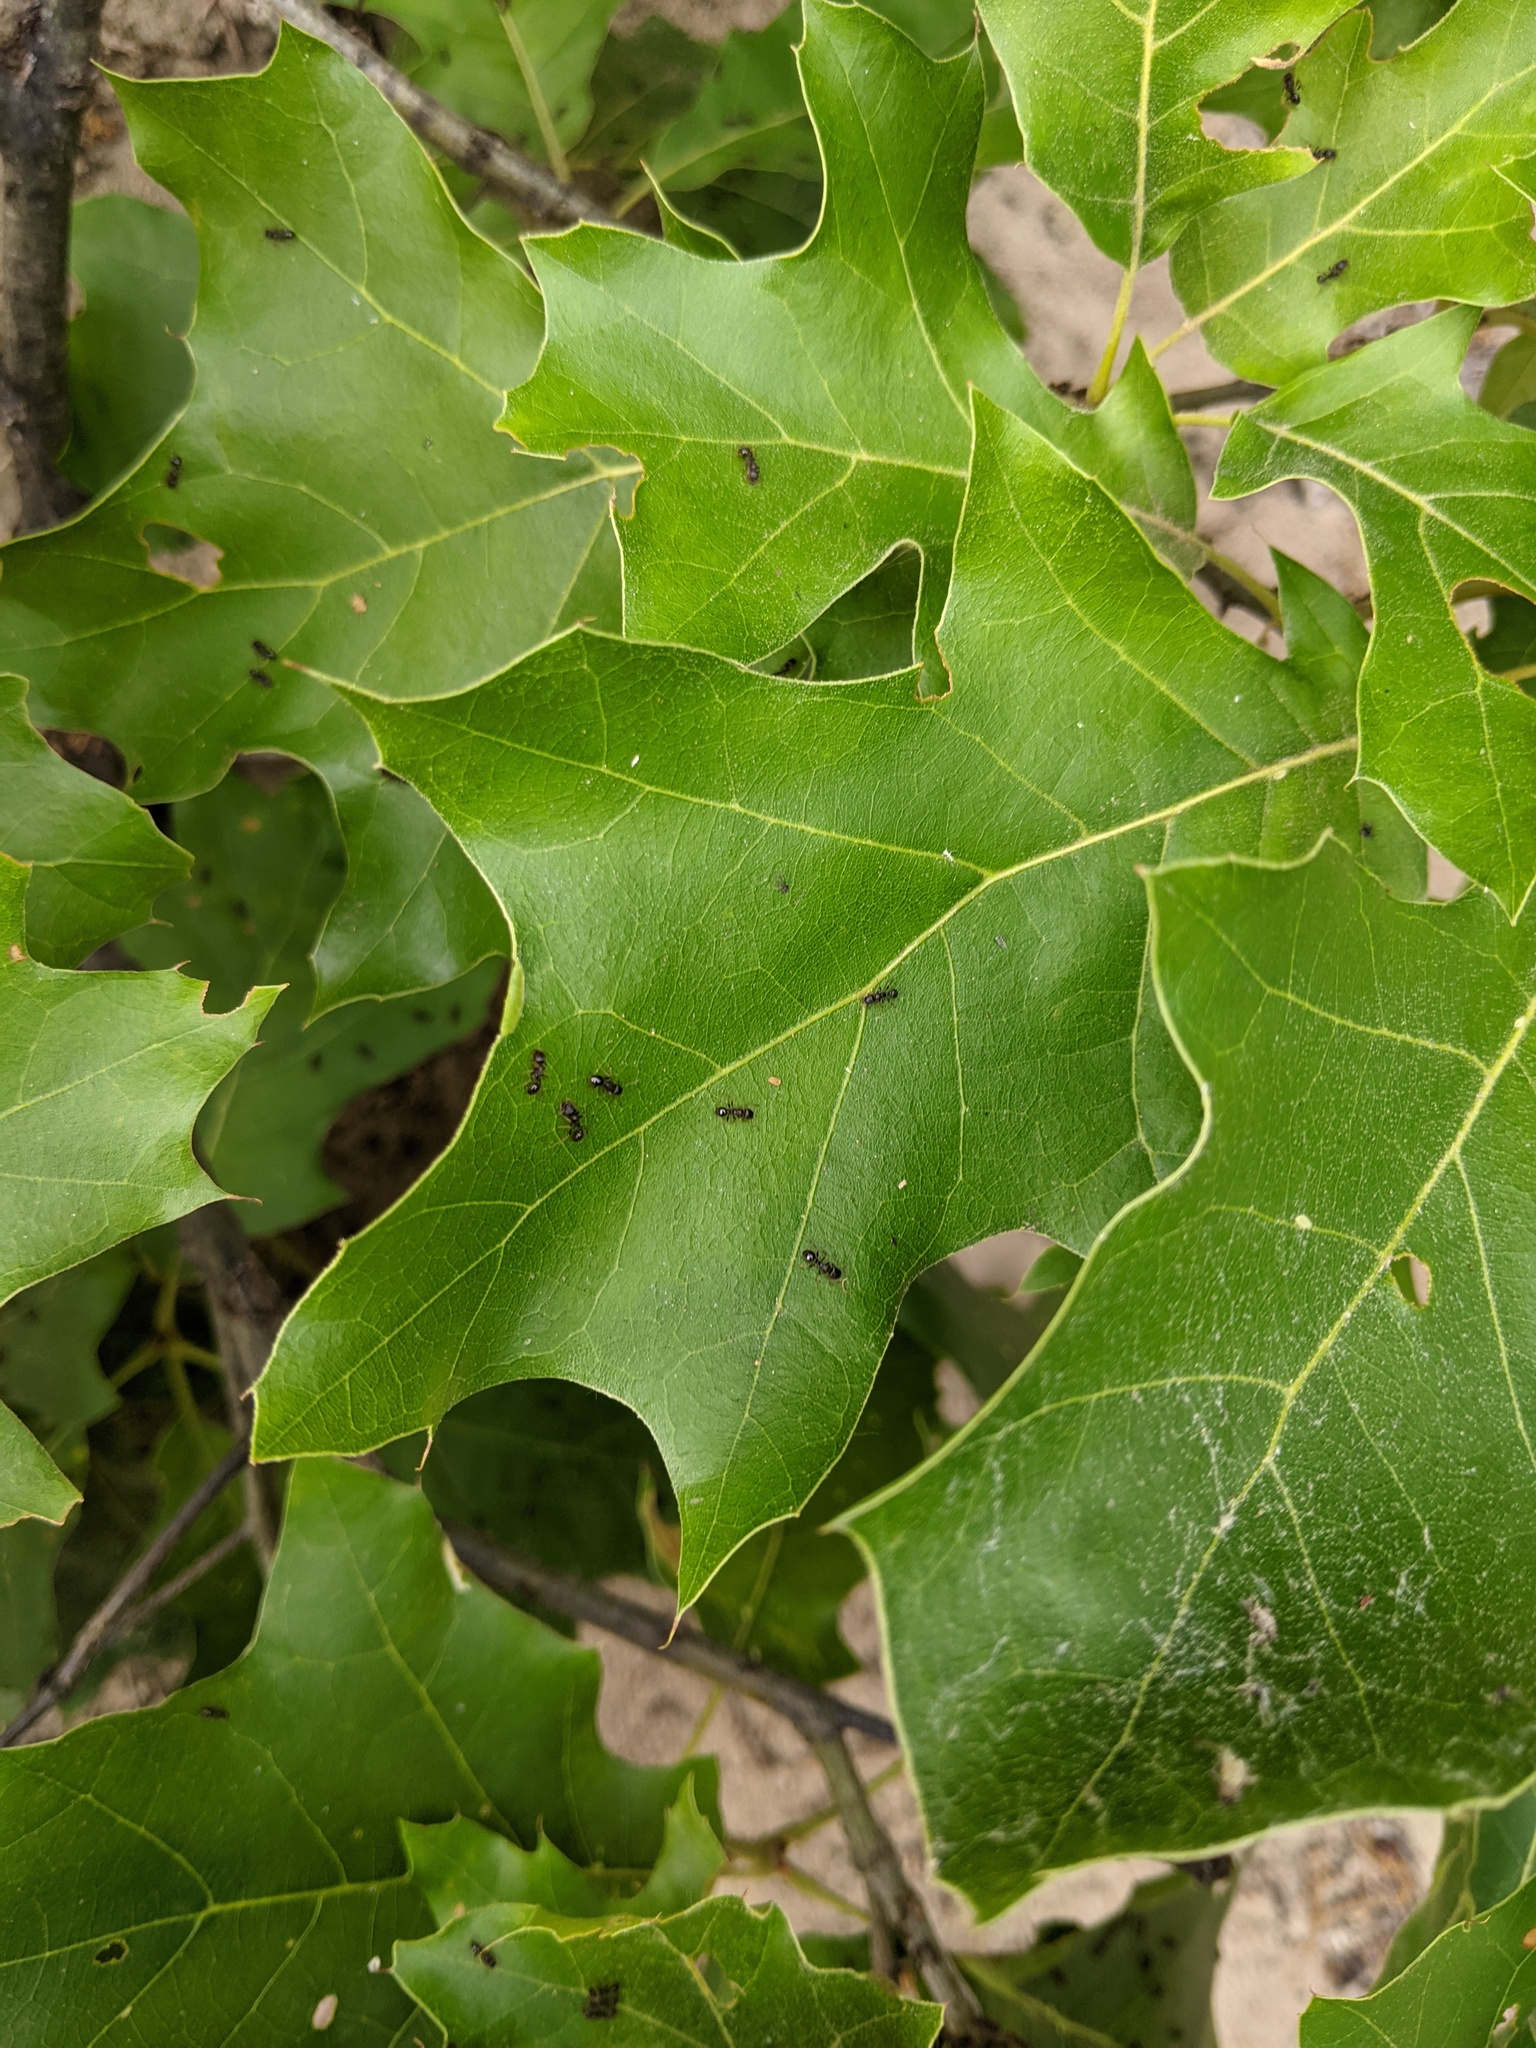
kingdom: Plantae
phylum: Tracheophyta
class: Magnoliopsida
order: Fagales
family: Fagaceae
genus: Quercus
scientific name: Quercus velutina
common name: Black oak
